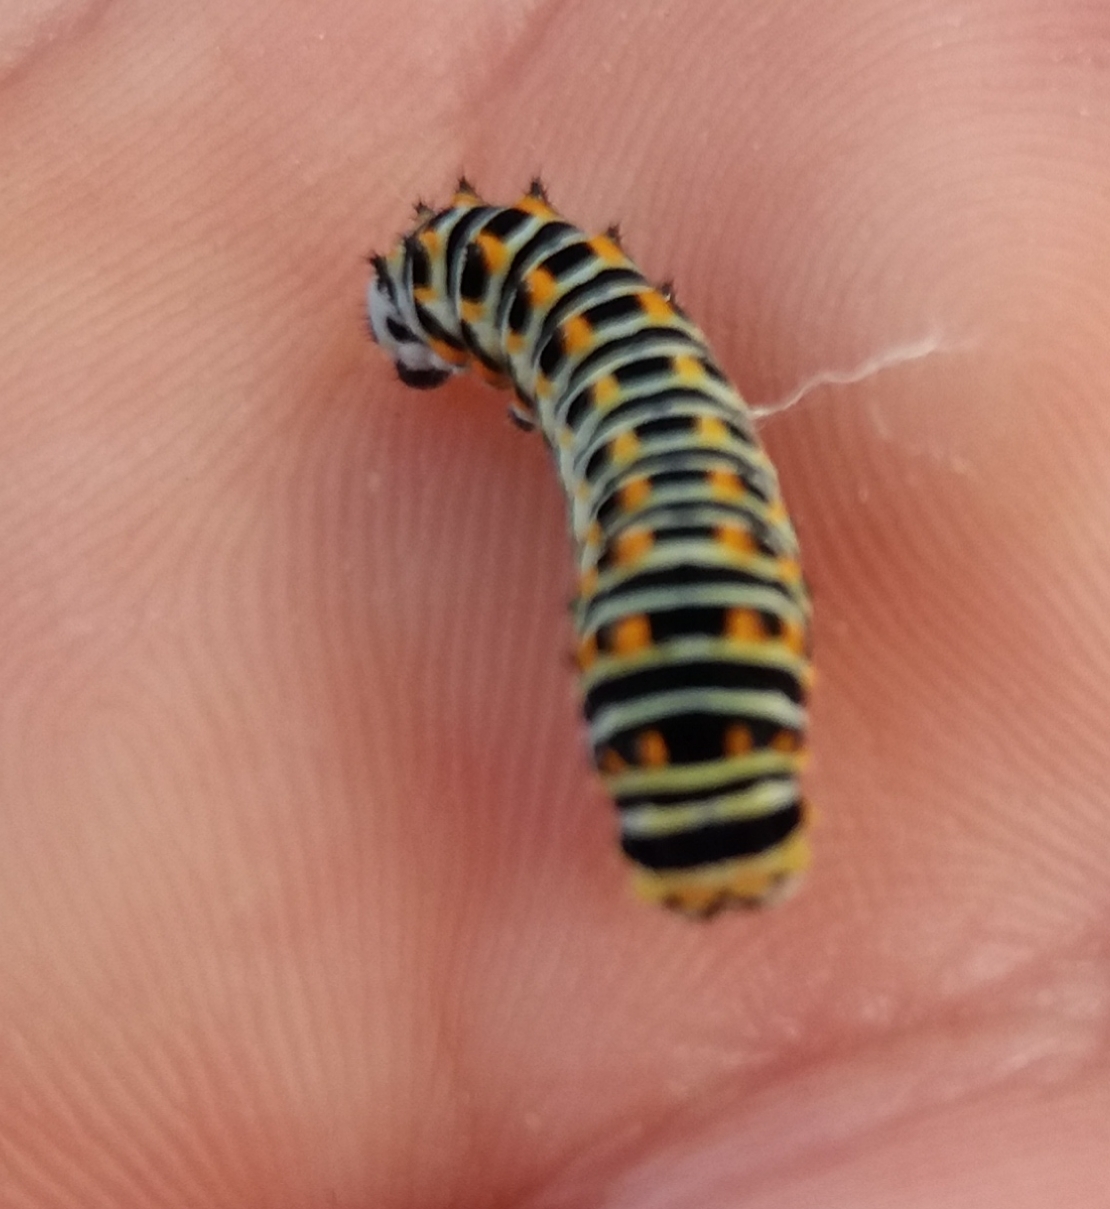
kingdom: Animalia
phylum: Arthropoda
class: Insecta
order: Lepidoptera
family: Papilionidae
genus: Papilio
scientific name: Papilio machaon
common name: Swallowtail
